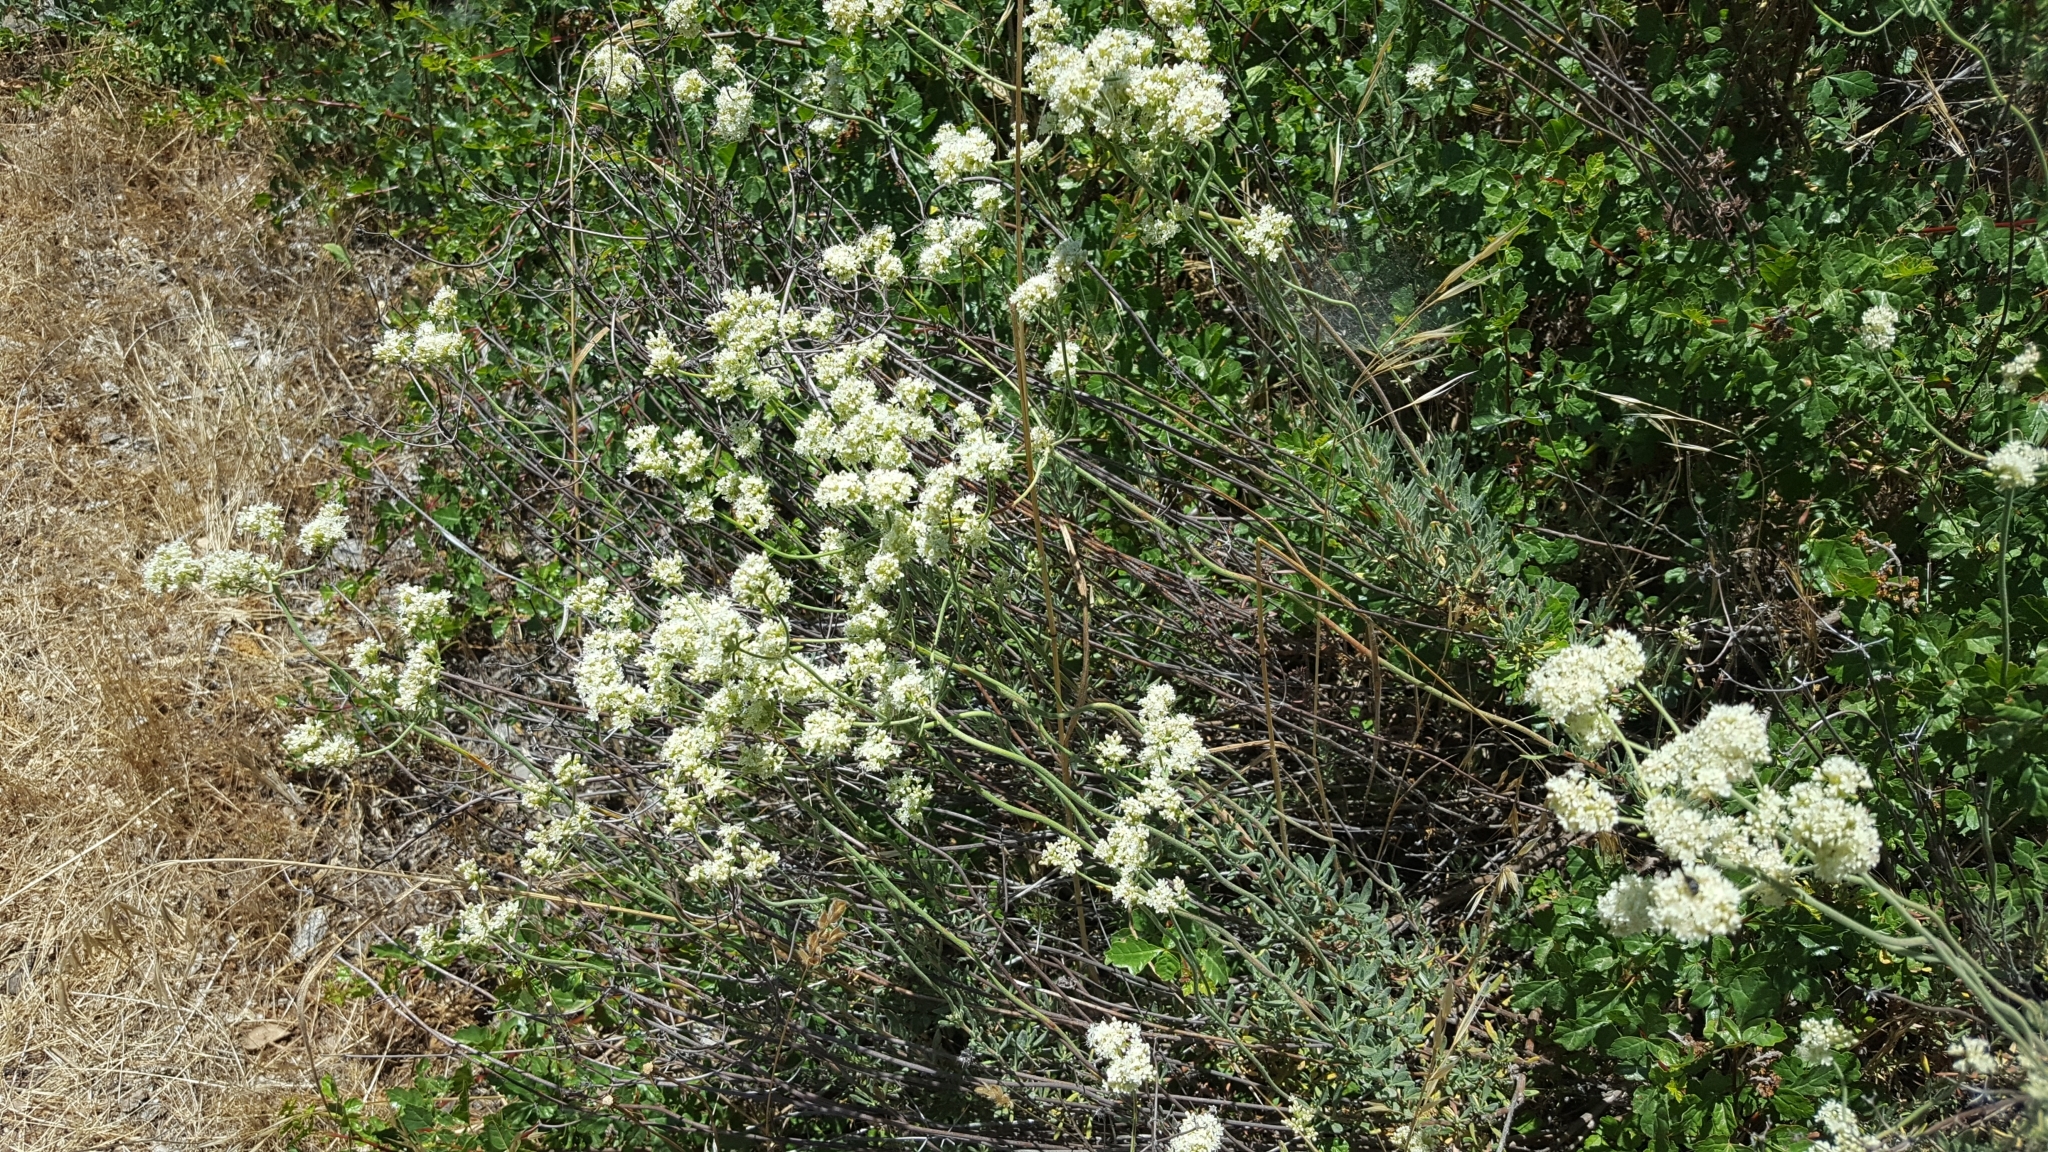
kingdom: Plantae
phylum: Tracheophyta
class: Magnoliopsida
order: Caryophyllales
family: Polygonaceae
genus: Eriogonum
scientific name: Eriogonum fasciculatum
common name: California wild buckwheat
